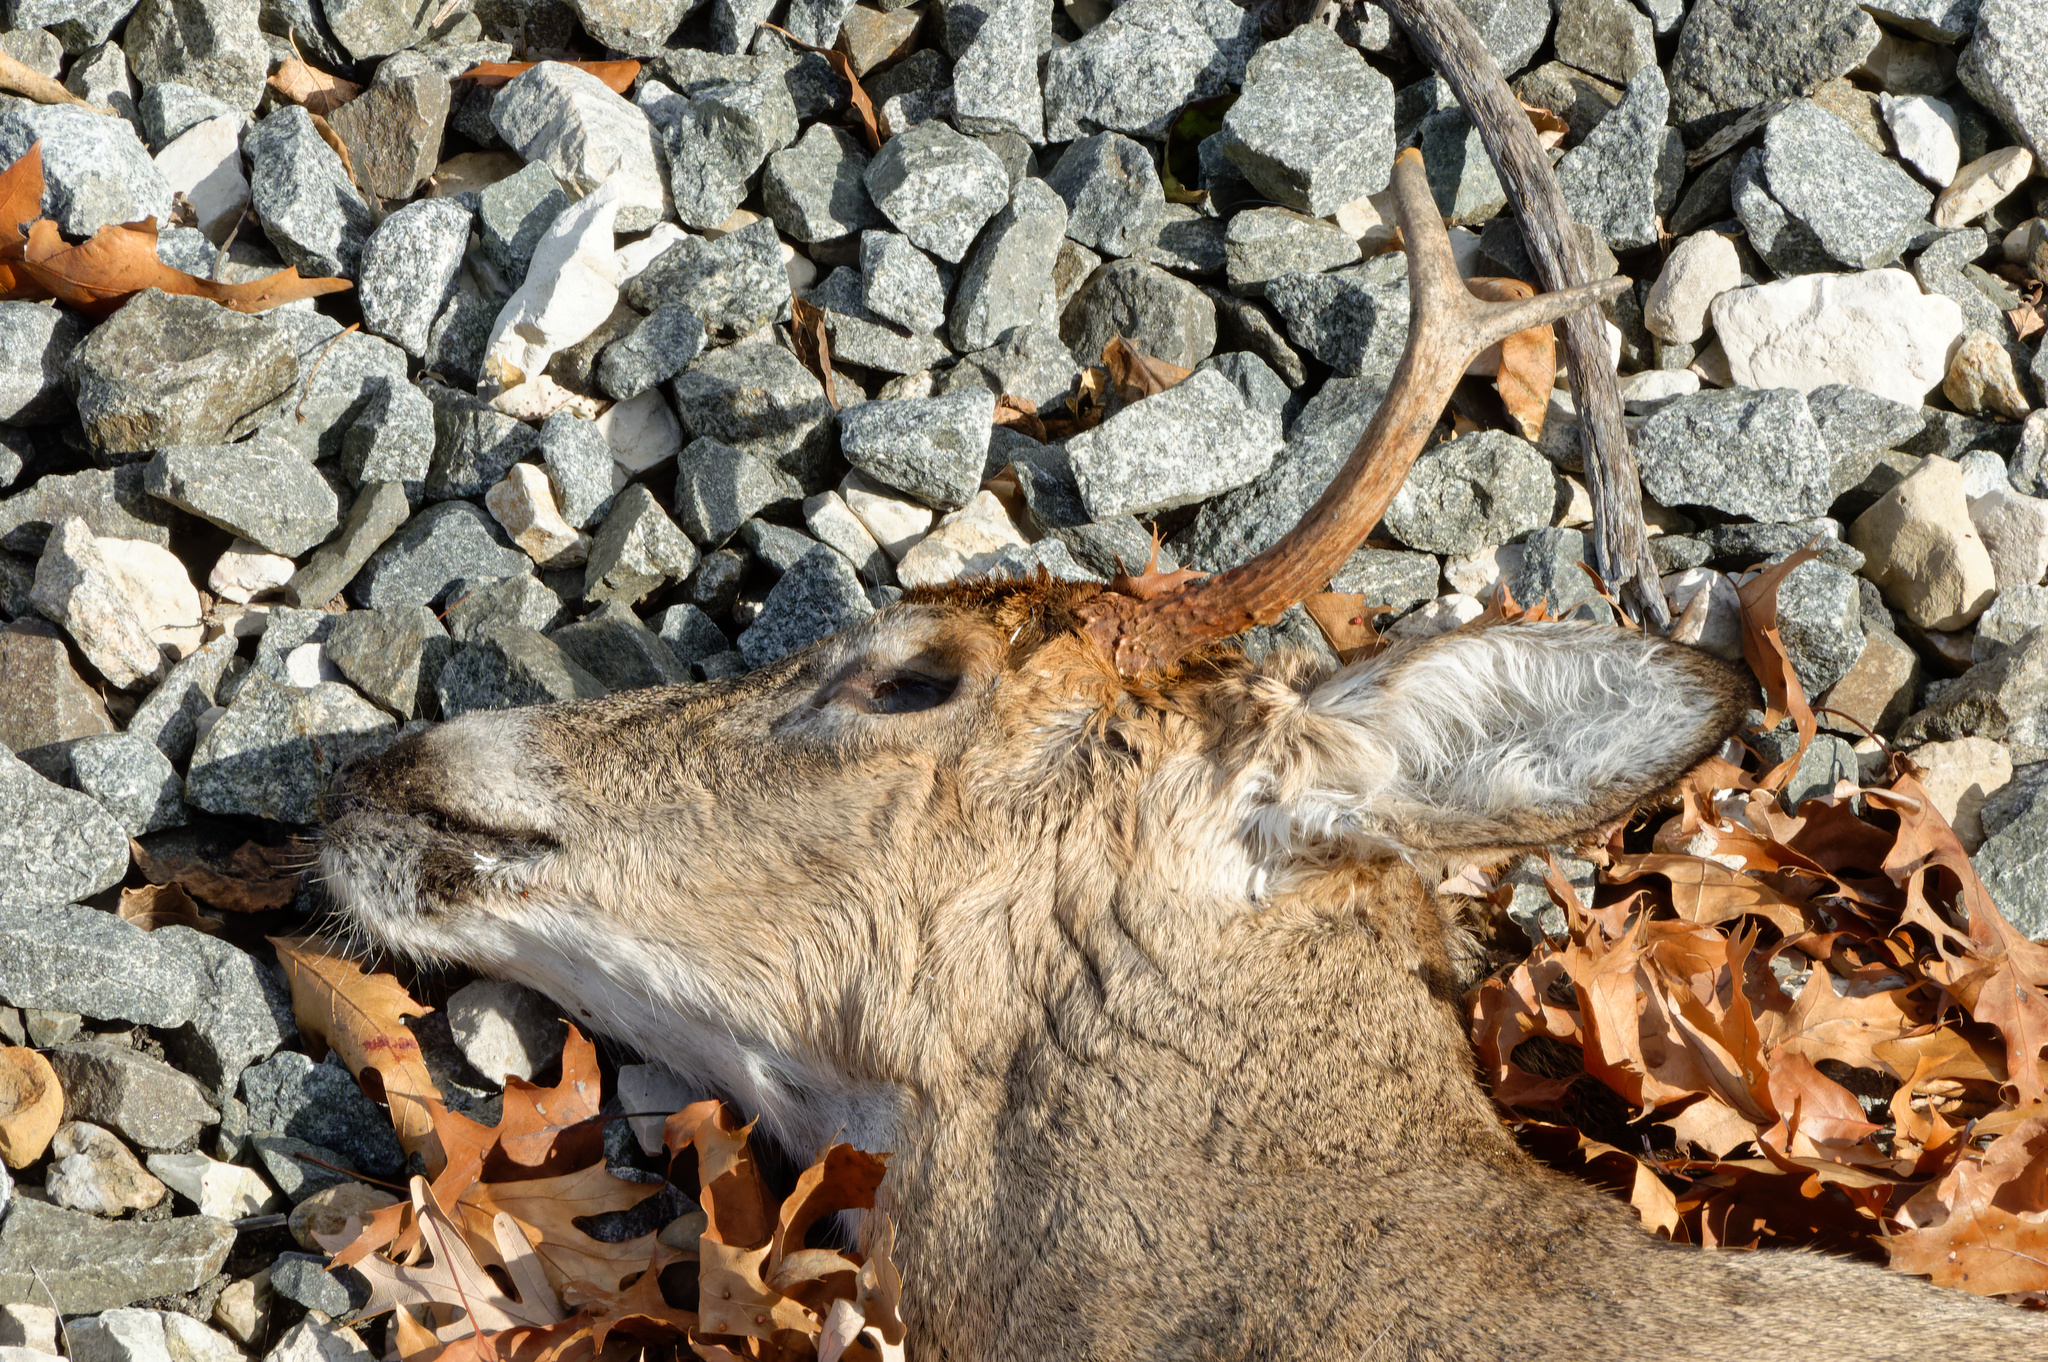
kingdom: Animalia
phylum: Chordata
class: Mammalia
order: Artiodactyla
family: Cervidae
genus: Odocoileus
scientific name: Odocoileus virginianus
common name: White-tailed deer
